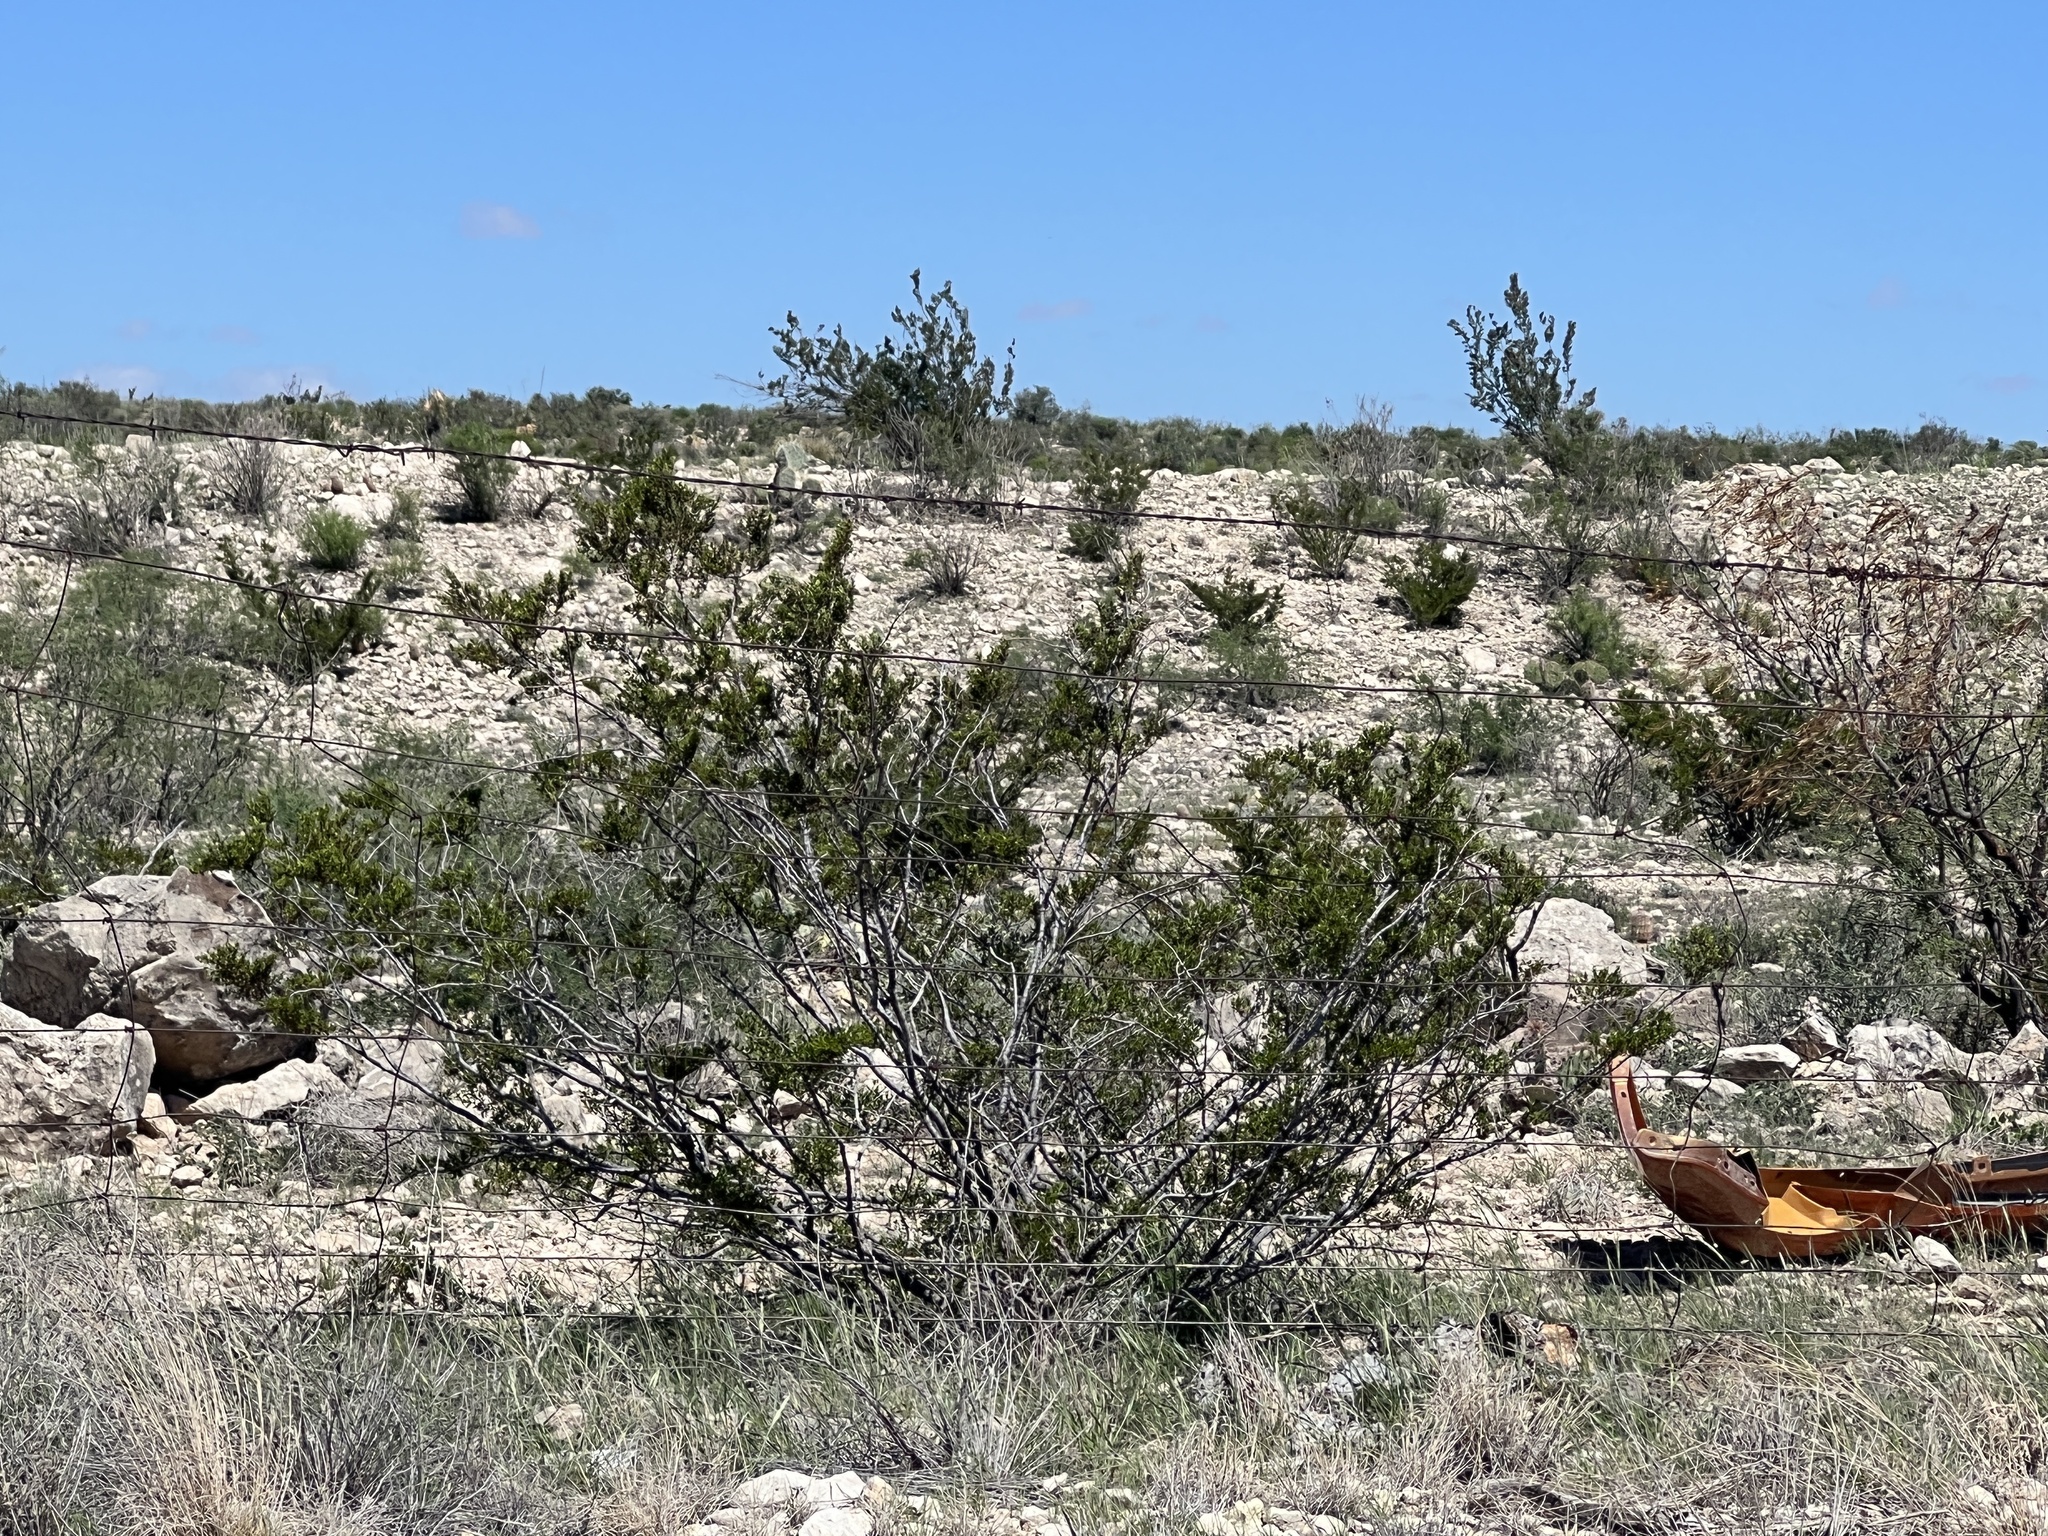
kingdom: Plantae
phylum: Tracheophyta
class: Magnoliopsida
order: Zygophyllales
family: Zygophyllaceae
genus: Larrea
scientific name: Larrea tridentata
